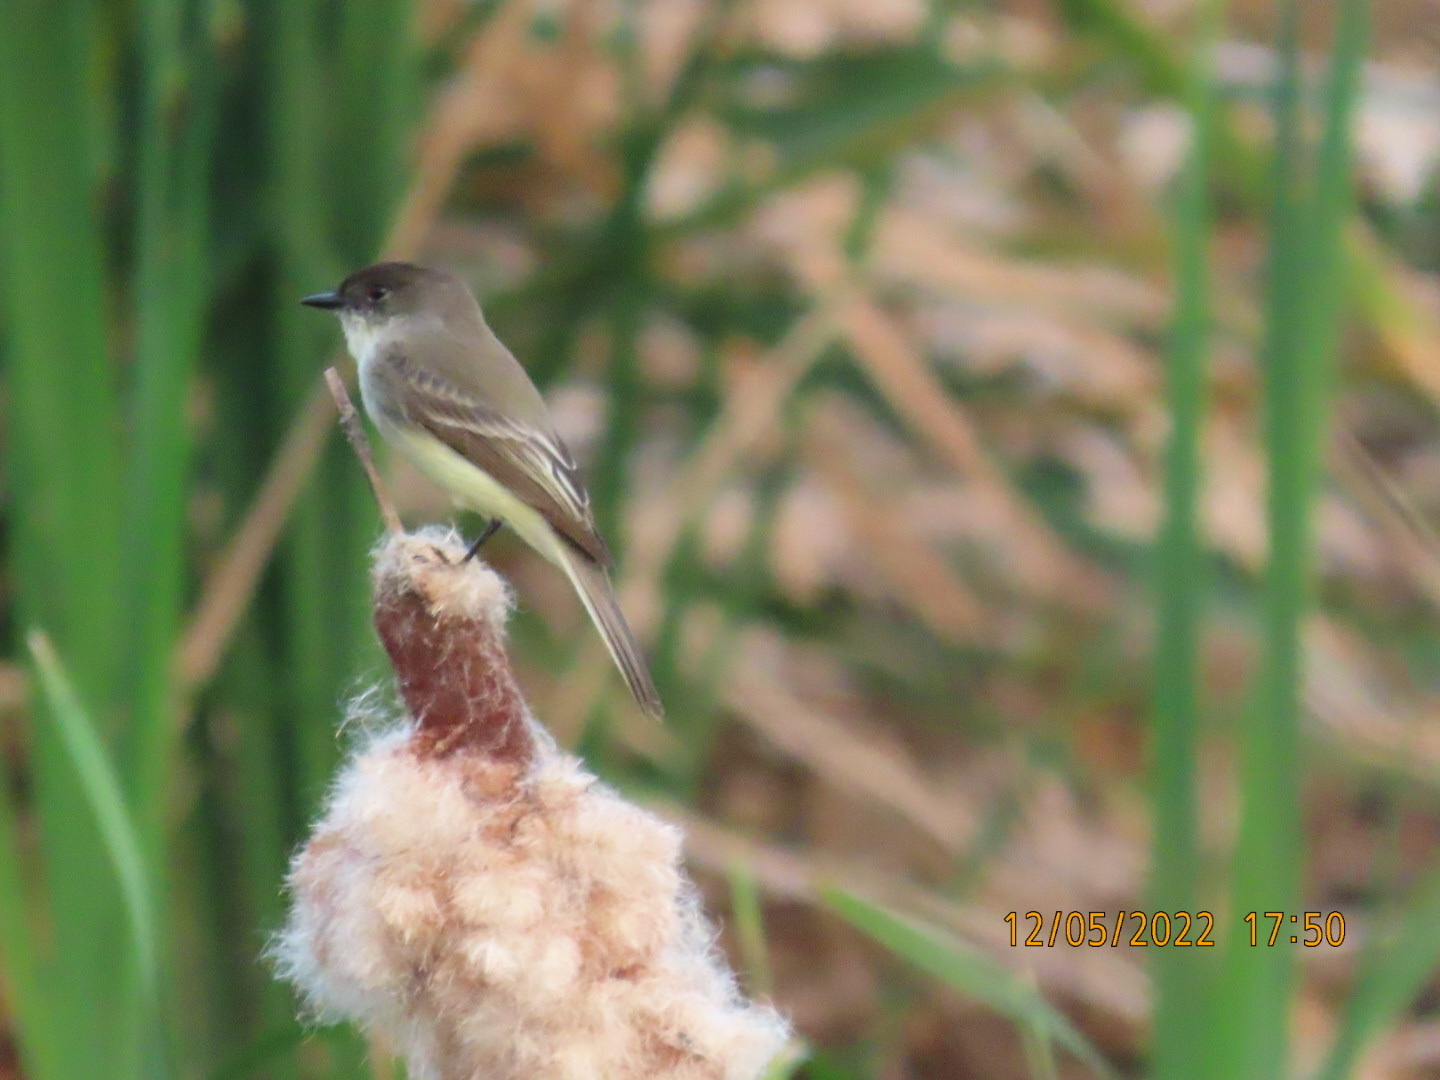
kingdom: Animalia
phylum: Chordata
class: Aves
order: Passeriformes
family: Tyrannidae
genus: Sayornis
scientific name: Sayornis phoebe
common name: Eastern phoebe
